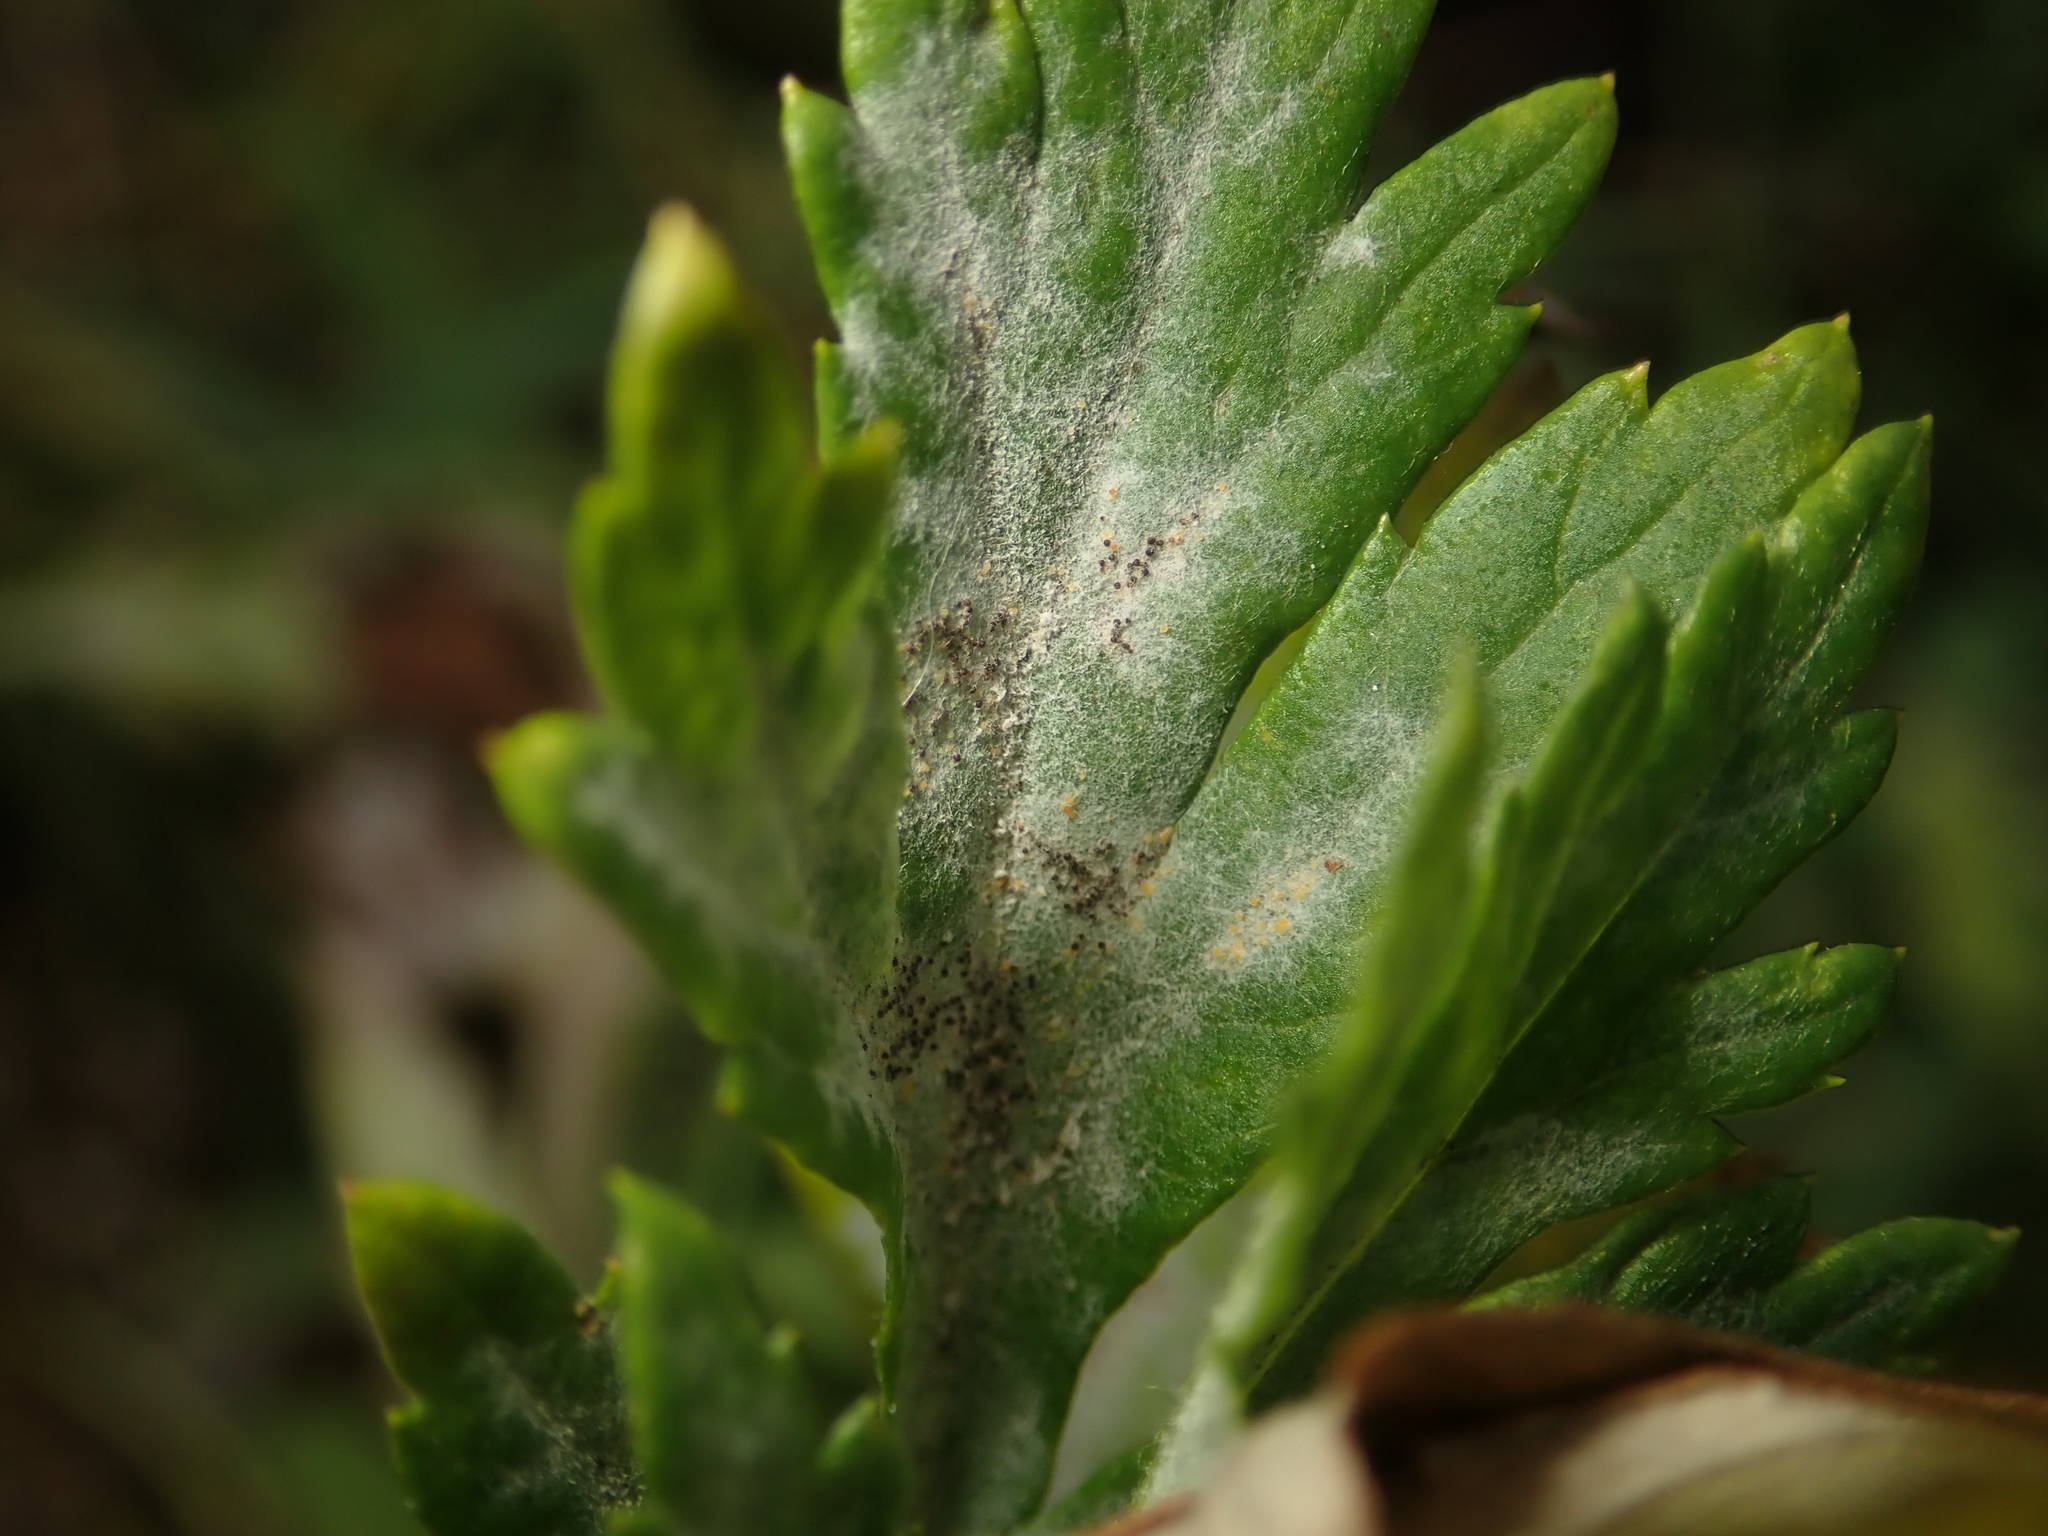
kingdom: Fungi
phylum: Ascomycota
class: Leotiomycetes
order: Helotiales
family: Erysiphaceae
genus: Golovinomyces
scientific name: Golovinomyces artemisiae
